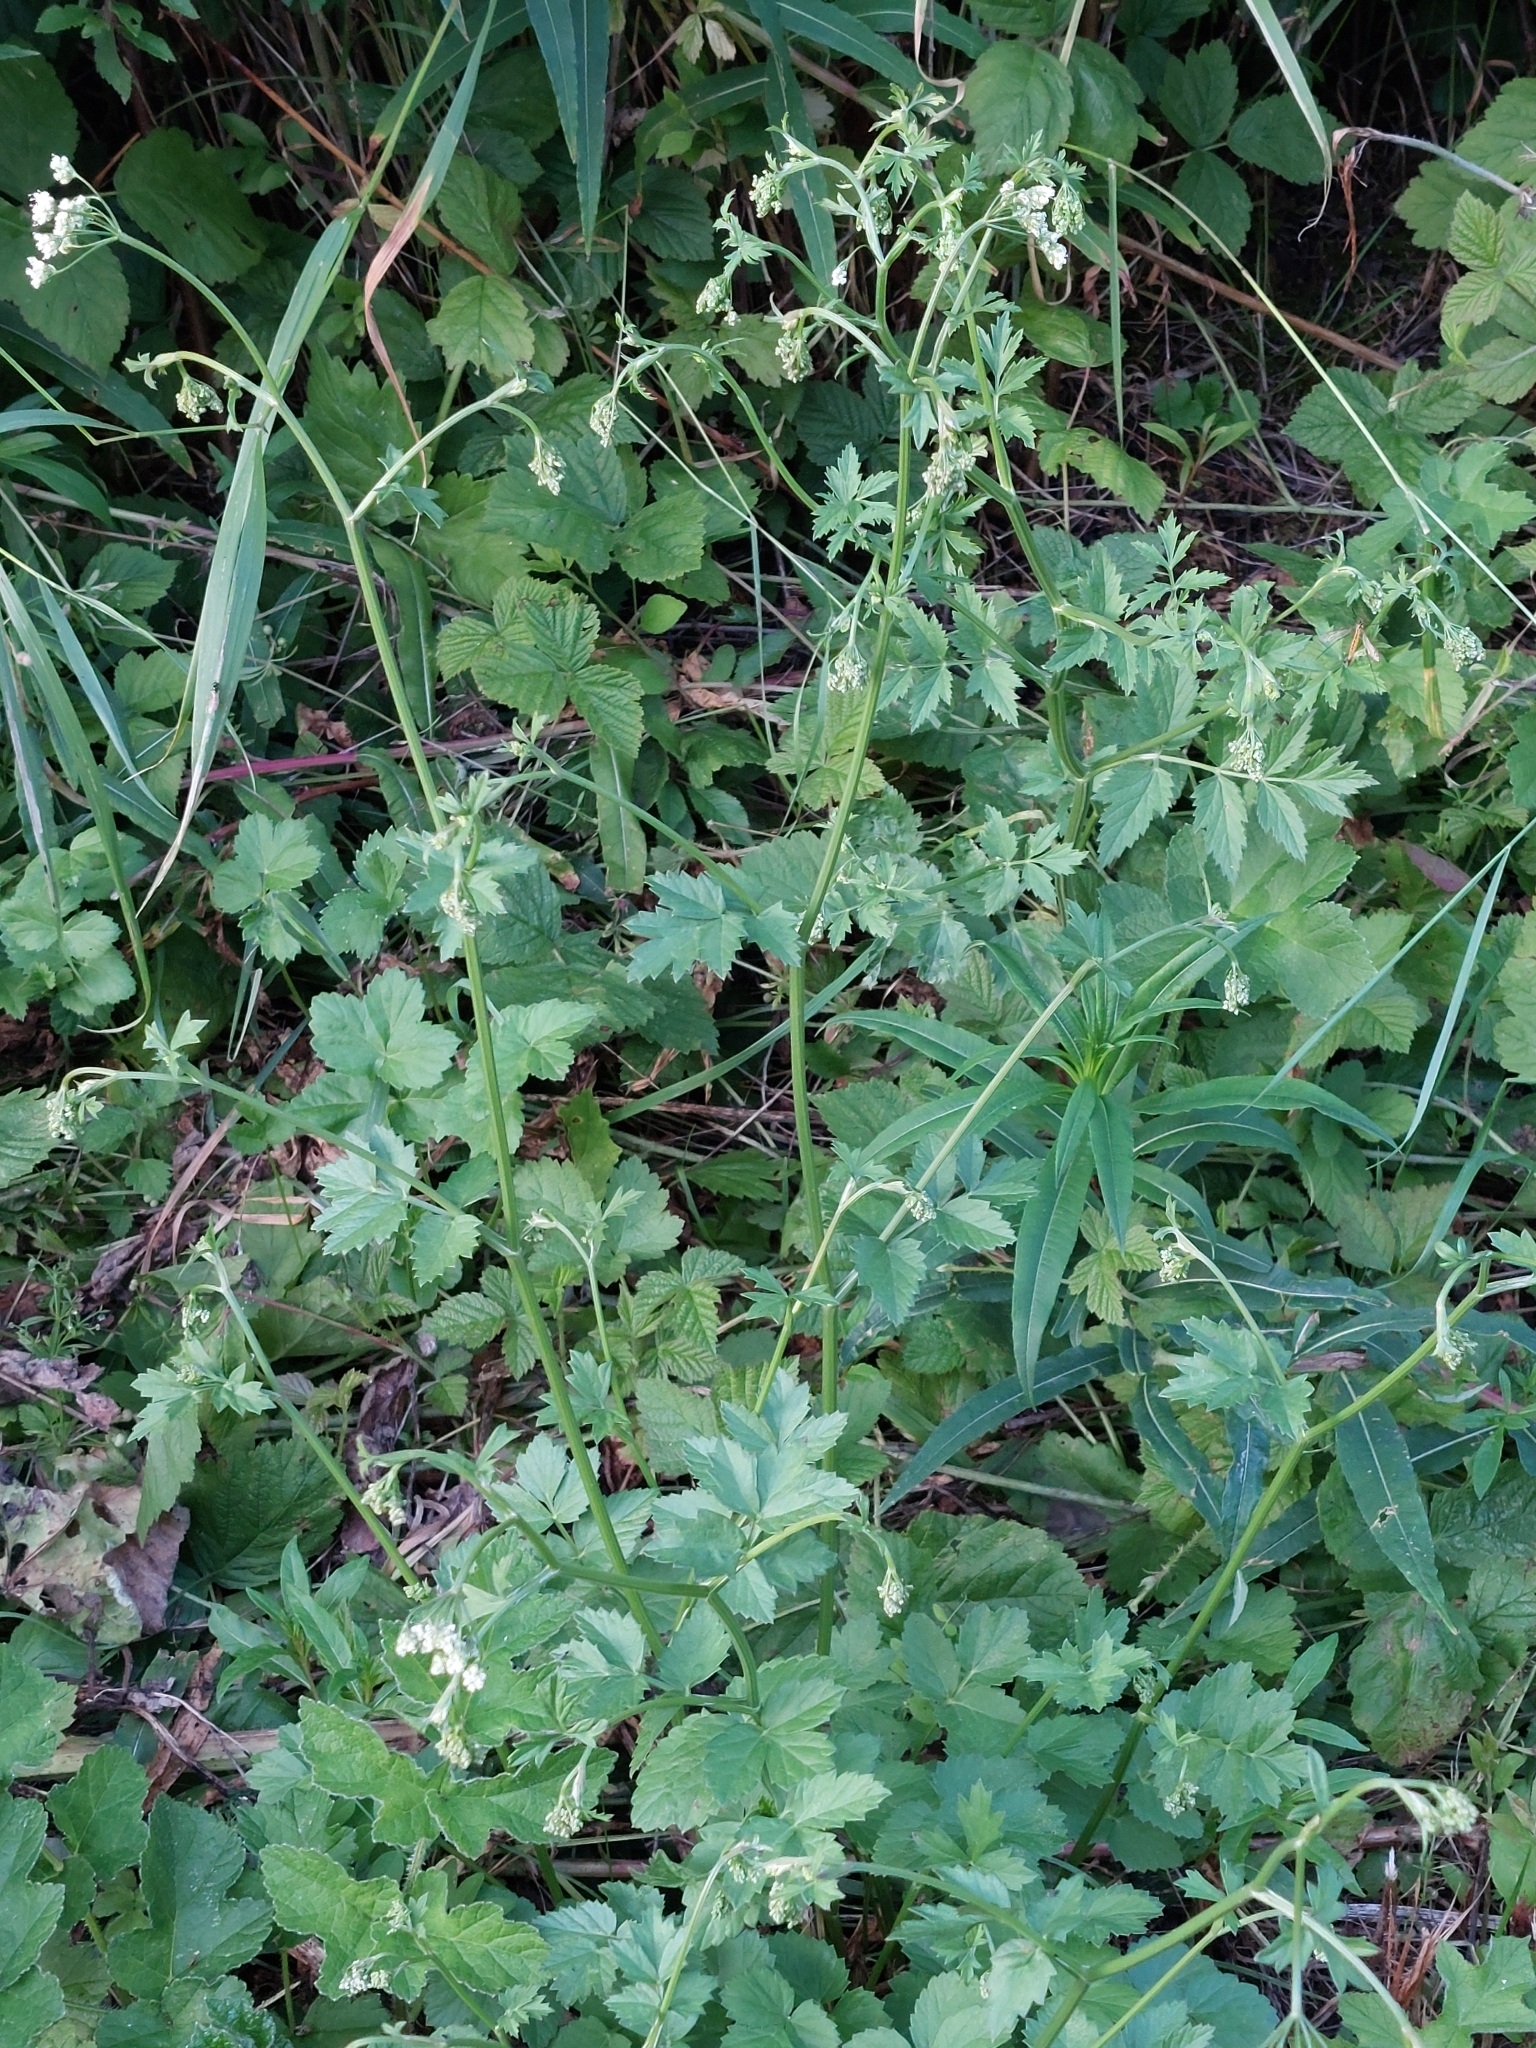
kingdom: Plantae
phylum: Tracheophyta
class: Magnoliopsida
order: Apiales
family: Apiaceae
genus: Pimpinella
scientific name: Pimpinella major
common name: Greater burnet-saxifrage
